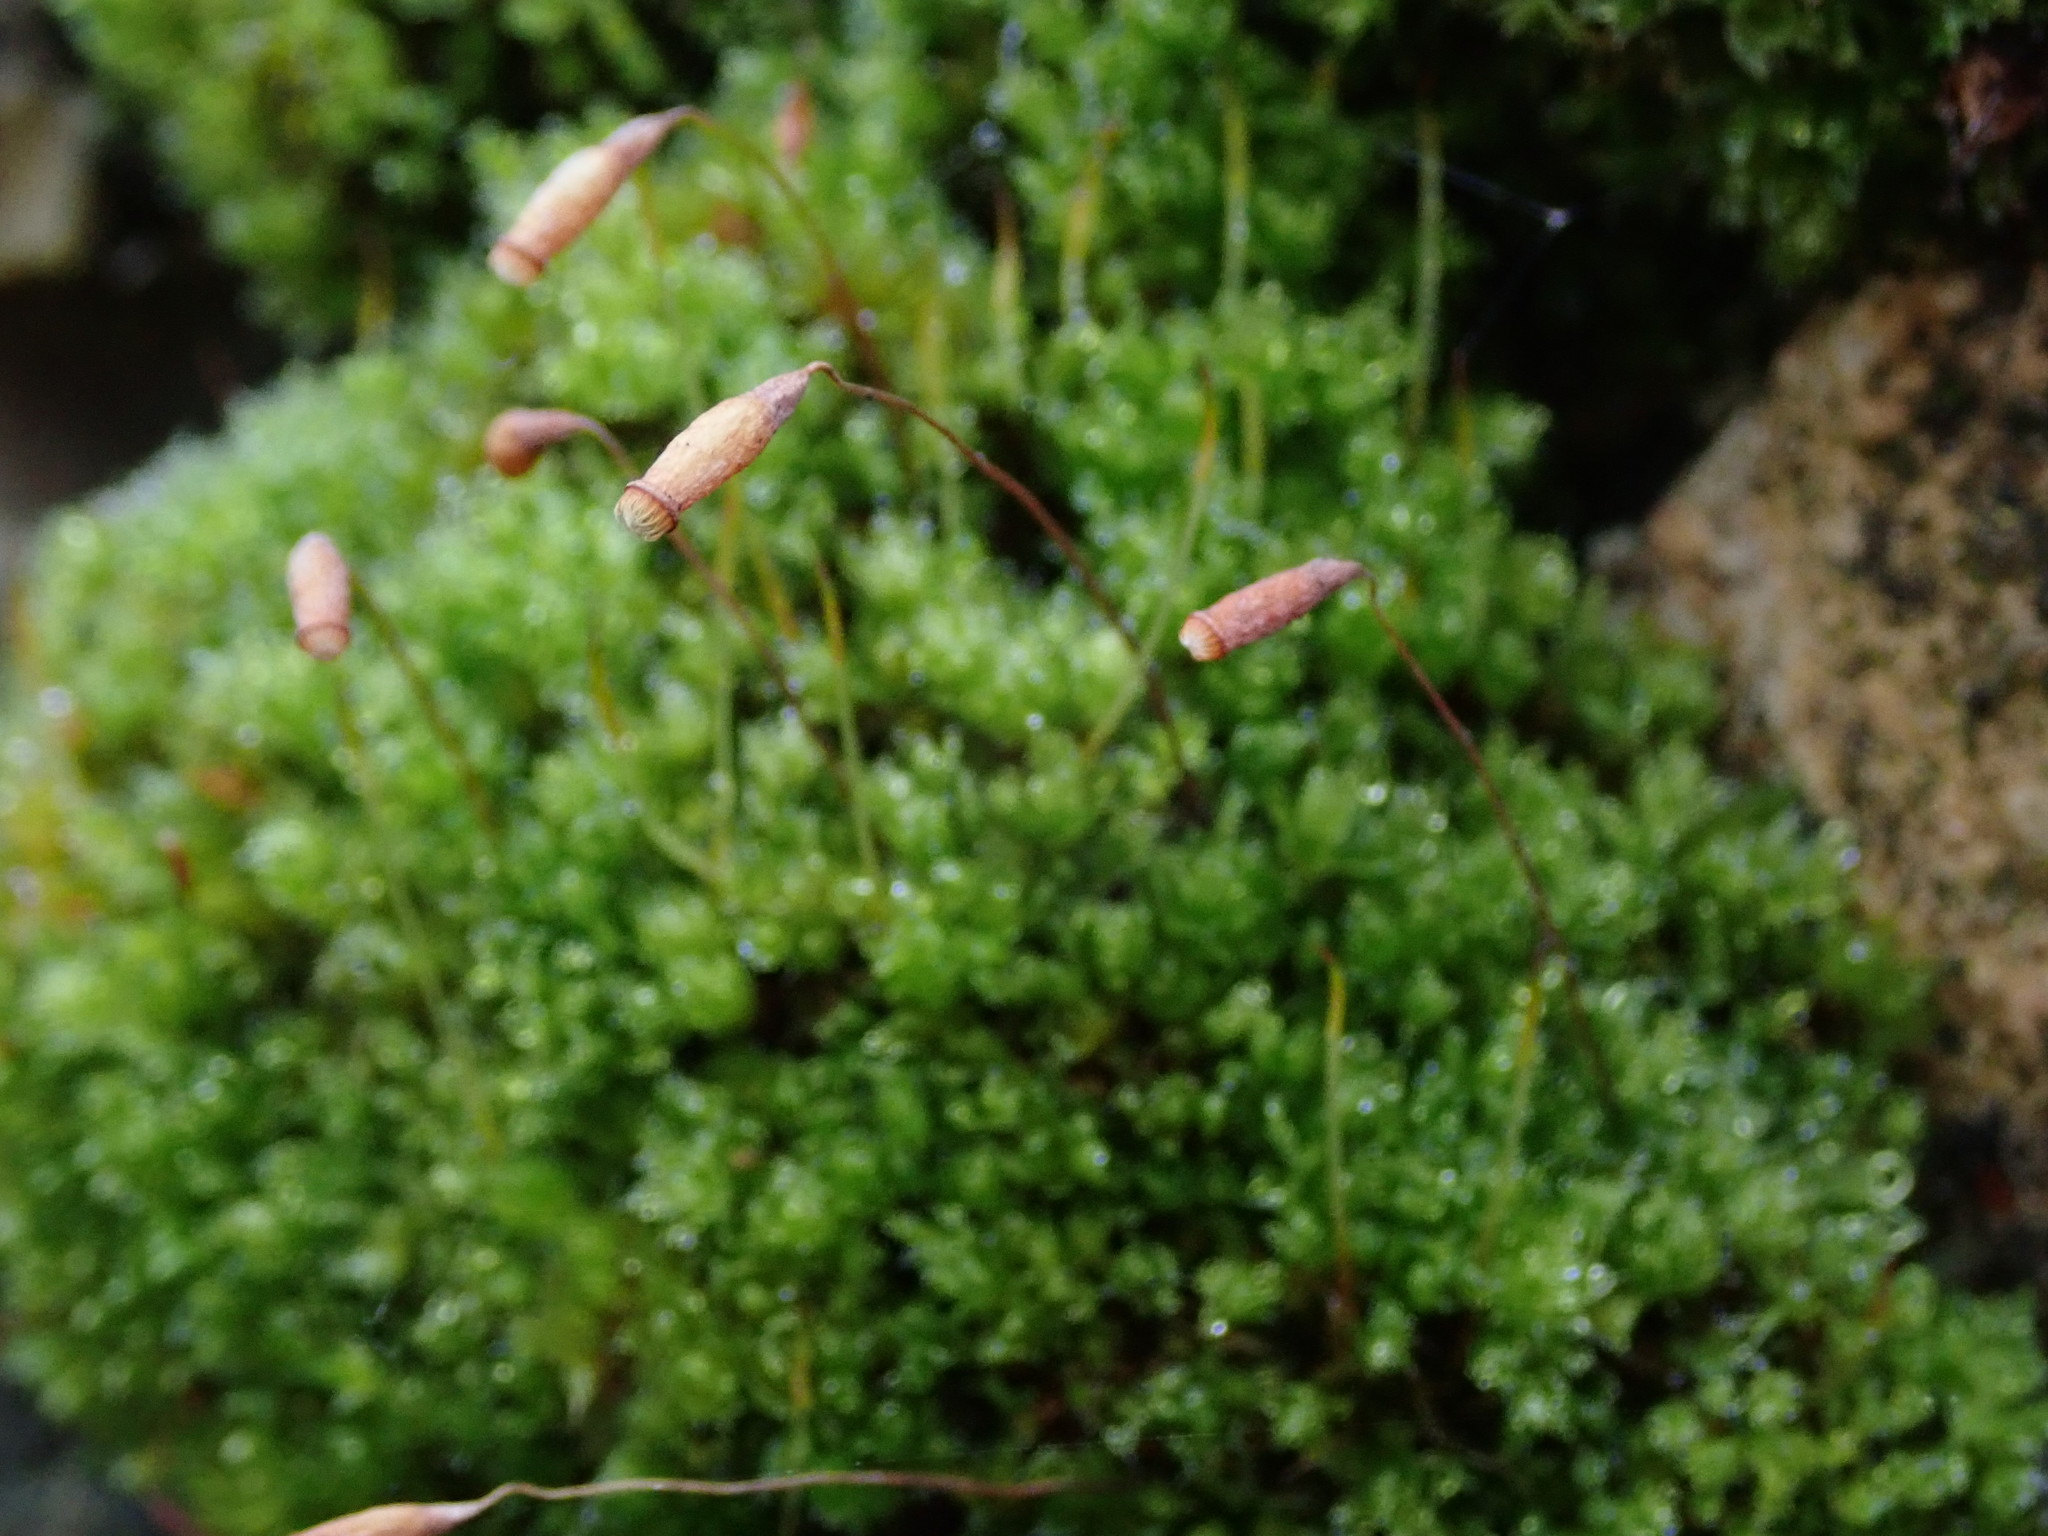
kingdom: Plantae
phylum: Bryophyta
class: Bryopsida
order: Bryales
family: Bryaceae
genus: Rosulabryum
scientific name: Rosulabryum capillare
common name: Capillary thread-moss
